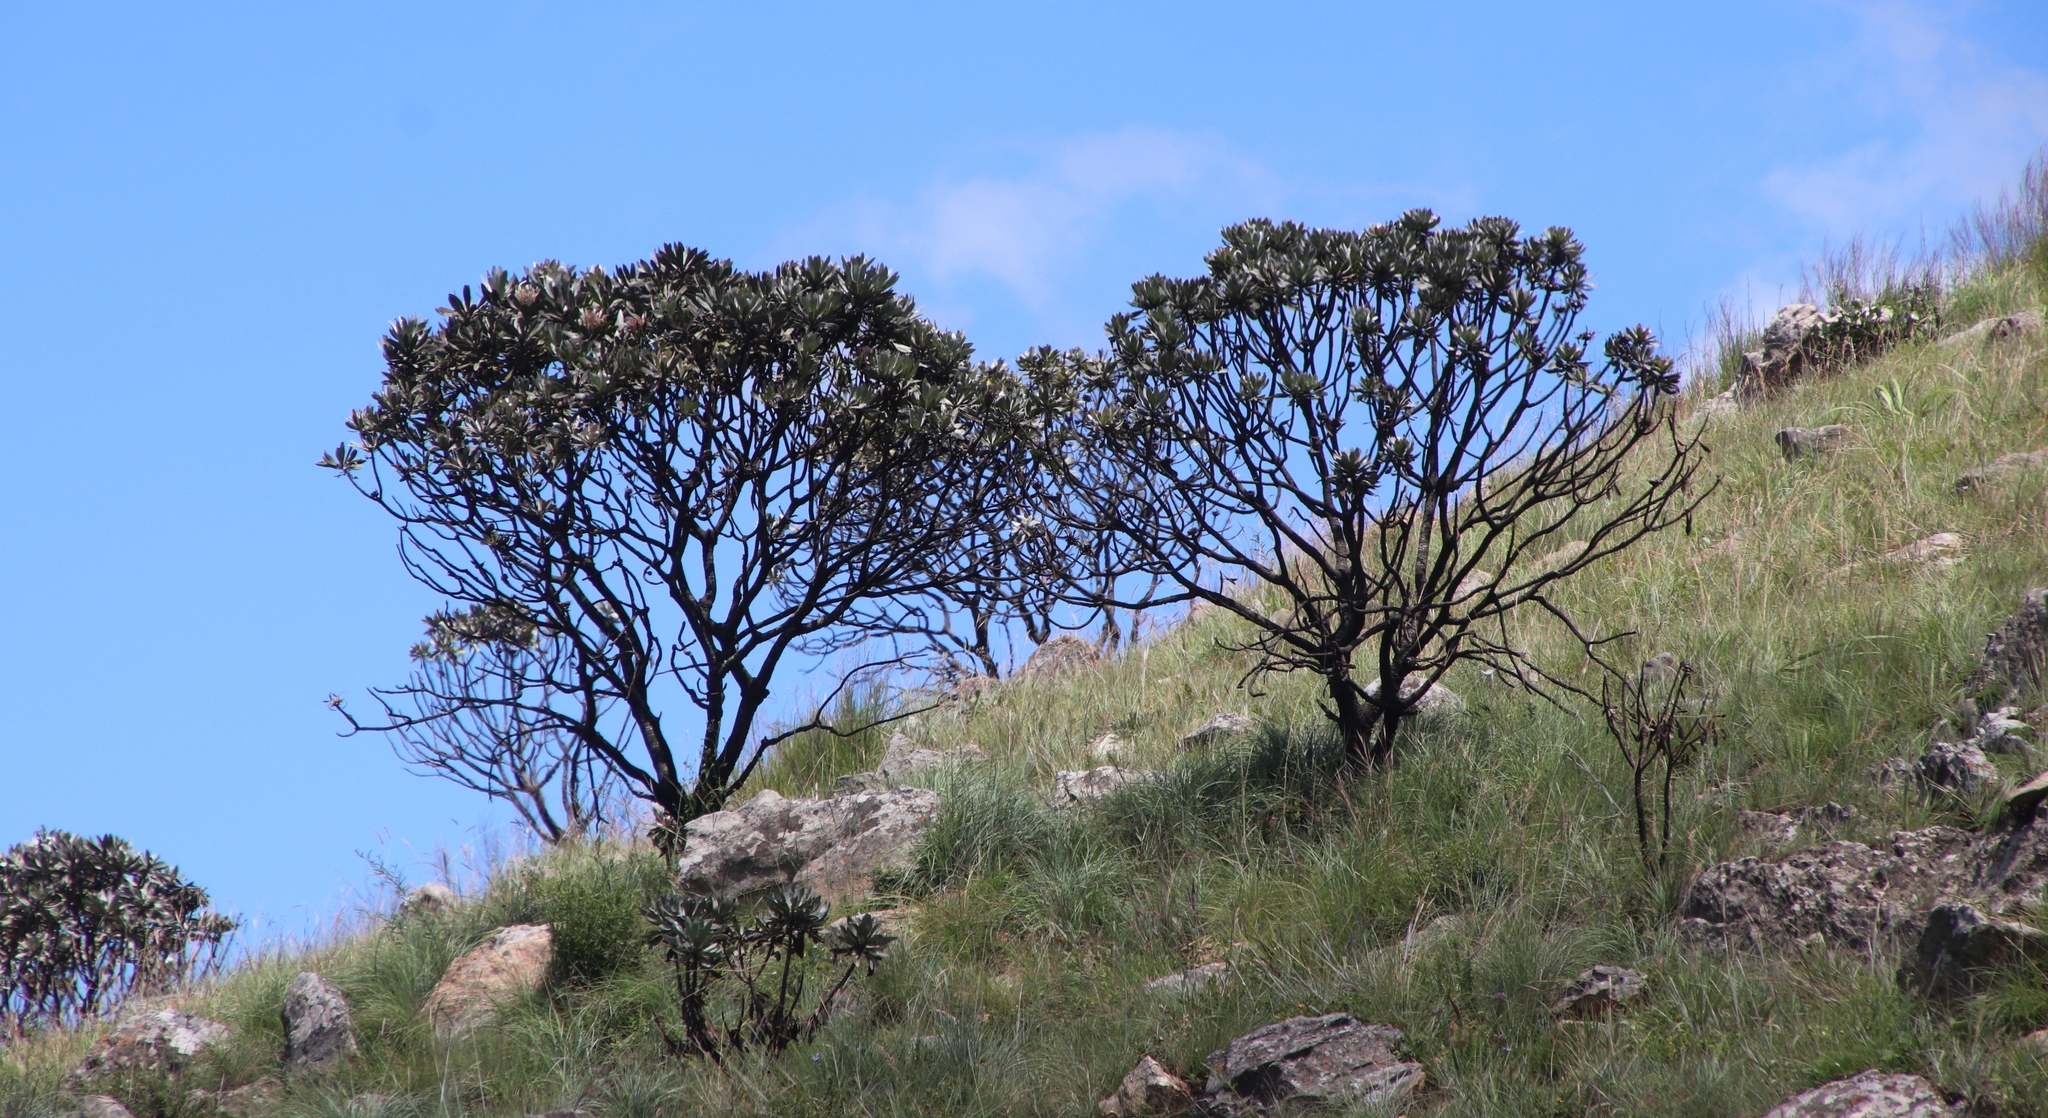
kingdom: Plantae
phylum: Tracheophyta
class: Magnoliopsida
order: Proteales
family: Proteaceae
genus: Protea
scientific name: Protea roupelliae
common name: Silver sugarbush
